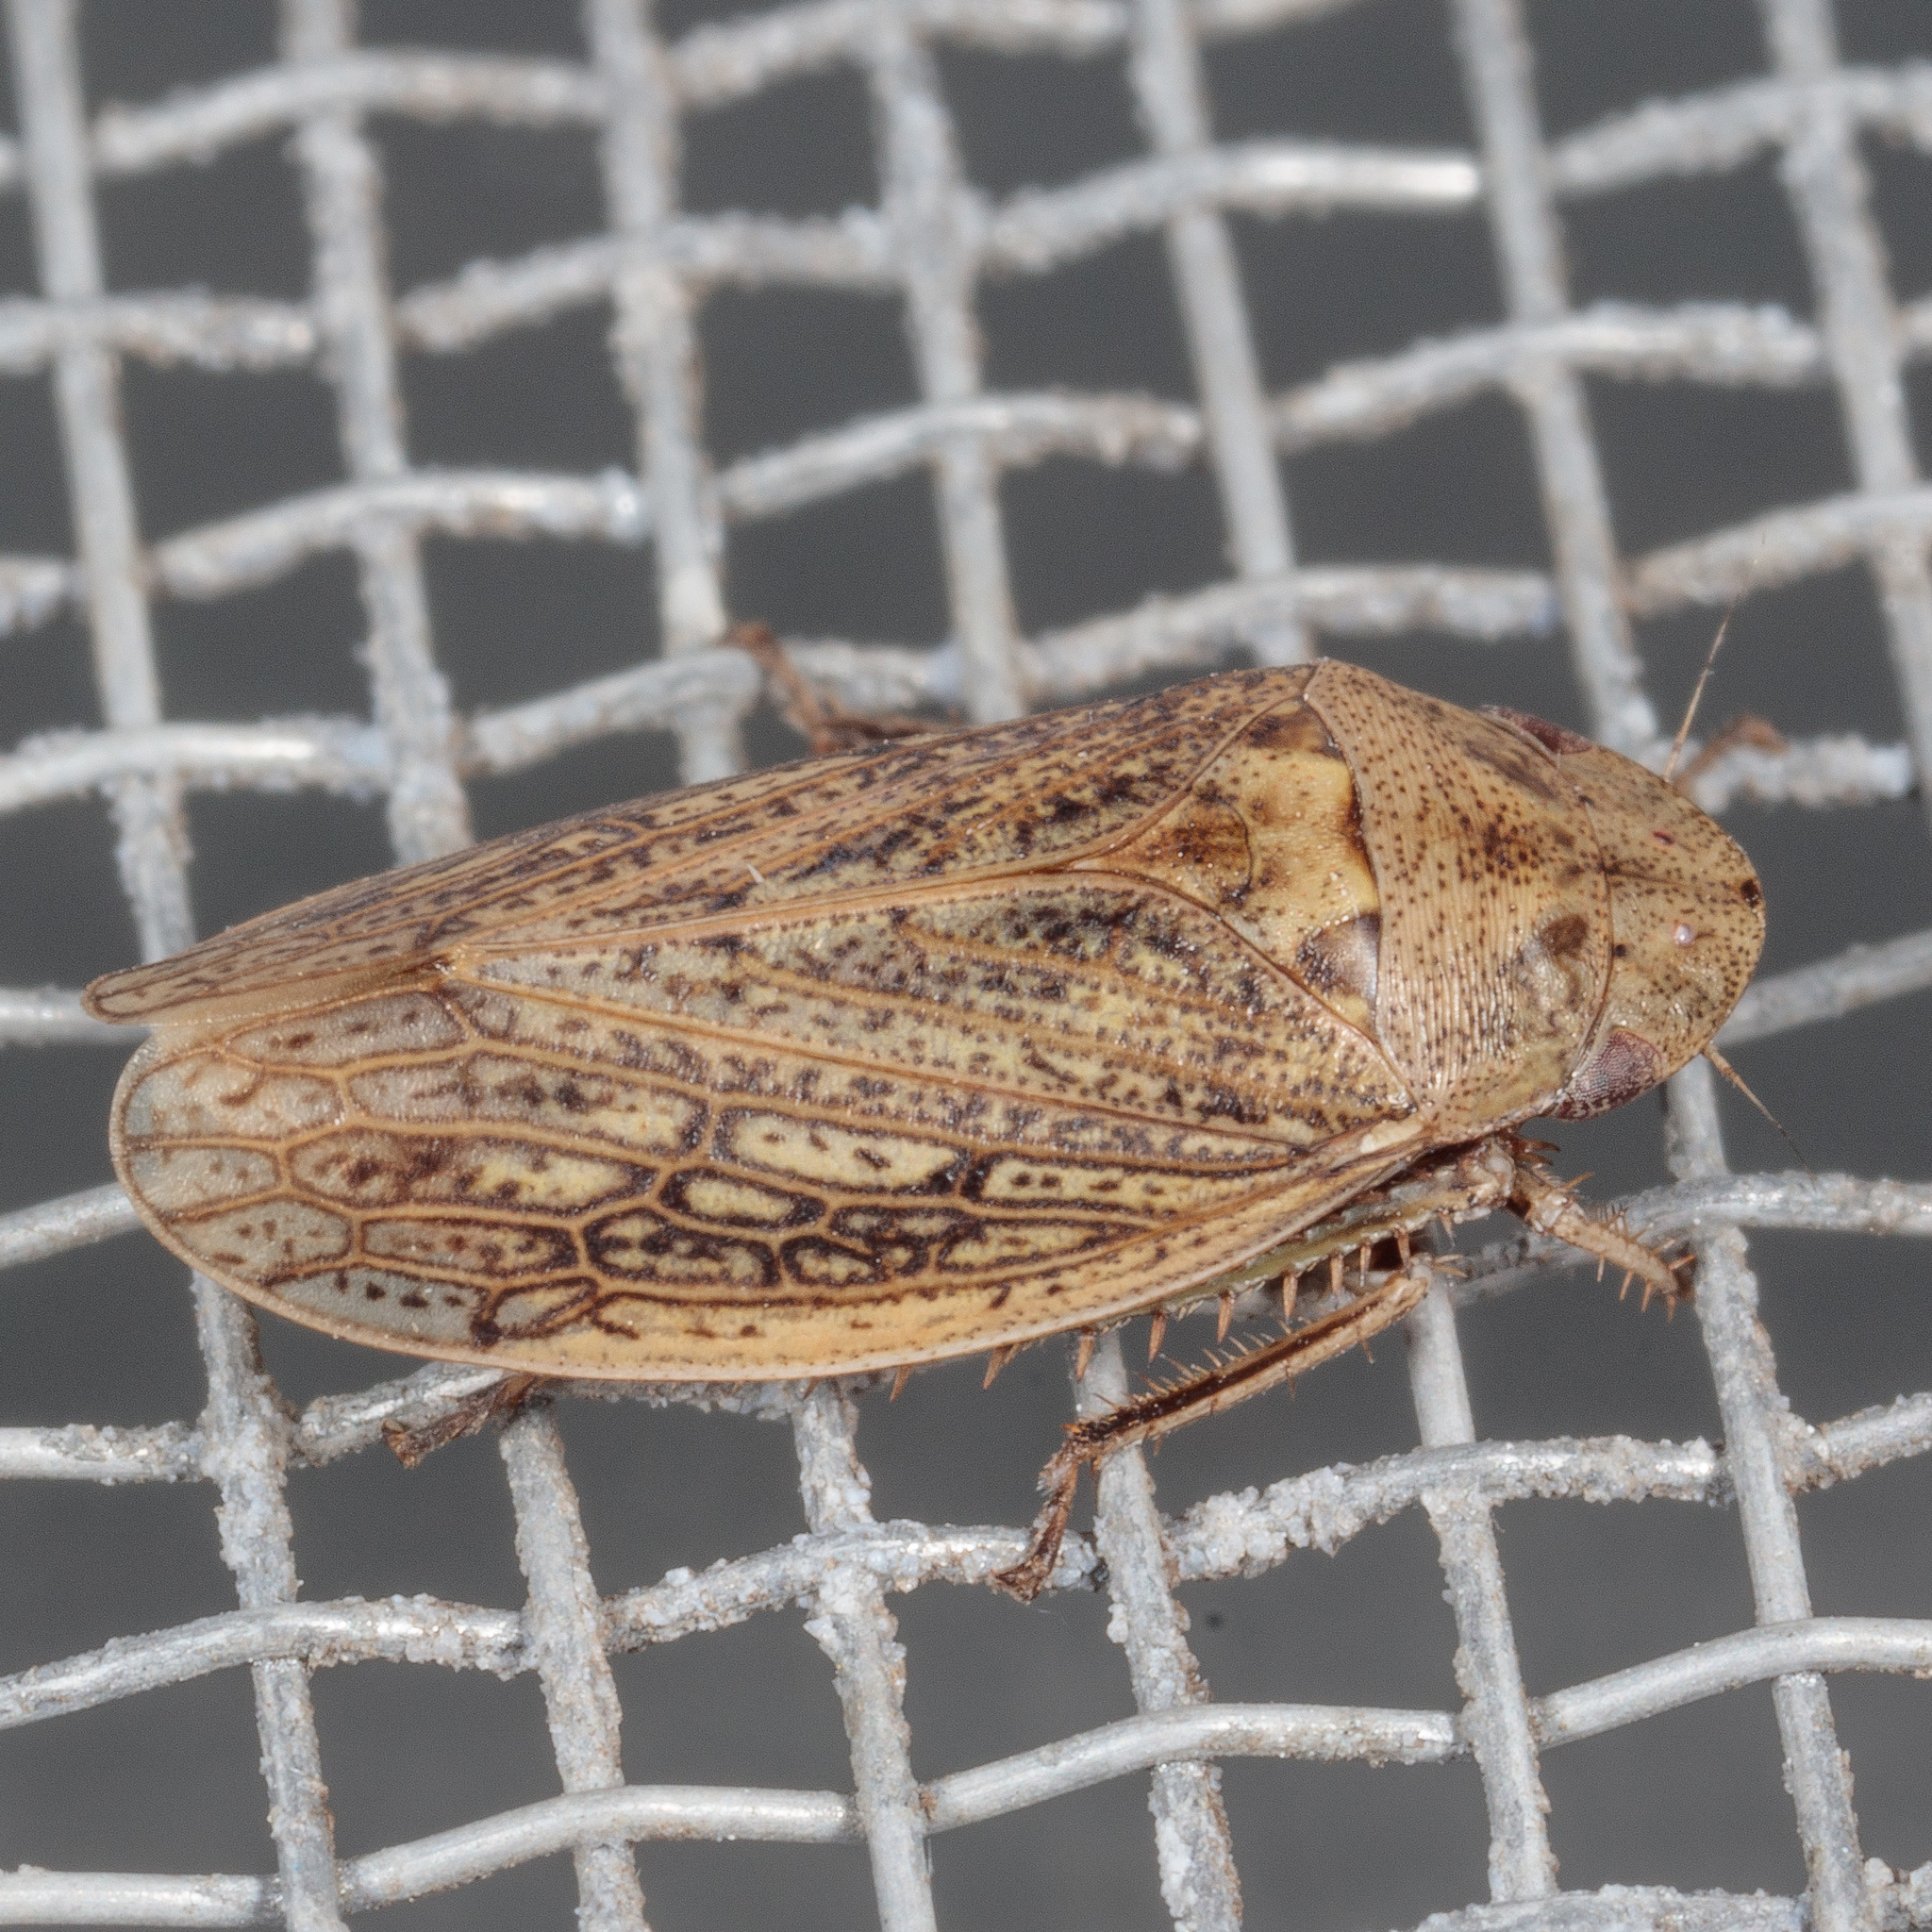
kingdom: Animalia
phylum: Arthropoda
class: Insecta
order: Hemiptera
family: Cicadellidae
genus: Negosiana
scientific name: Negosiana dualis
